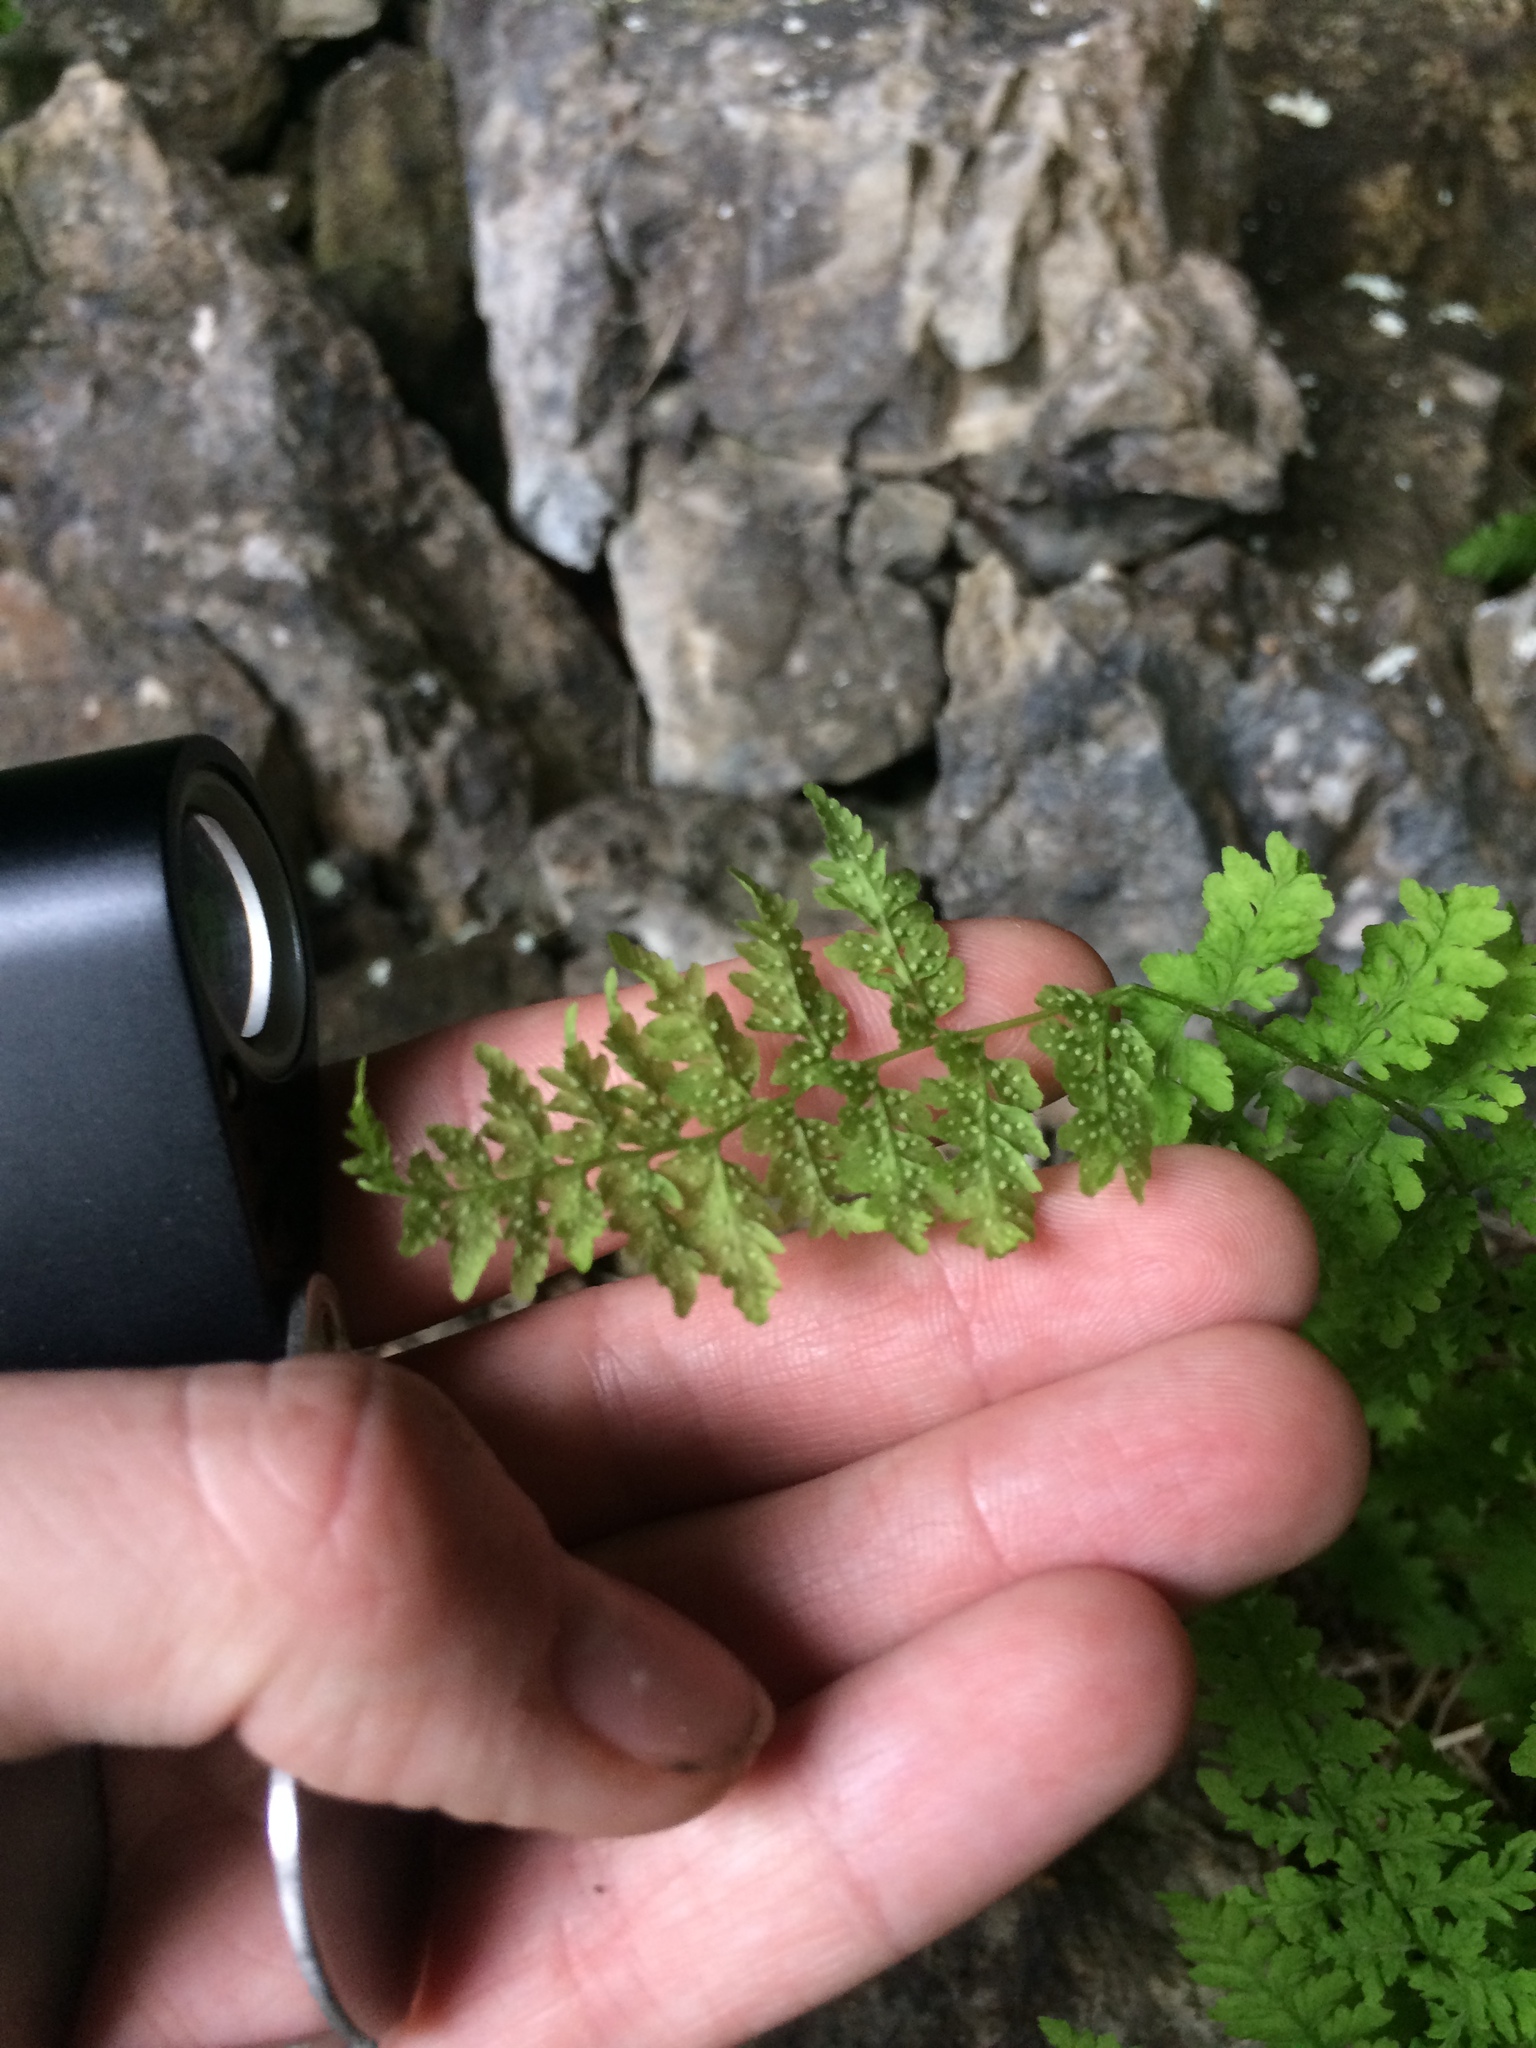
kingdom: Plantae
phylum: Tracheophyta
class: Polypodiopsida
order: Polypodiales
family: Cystopteridaceae
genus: Cystopteris
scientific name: Cystopteris laurentiana
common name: Blasdell's laurentian bladder fern
